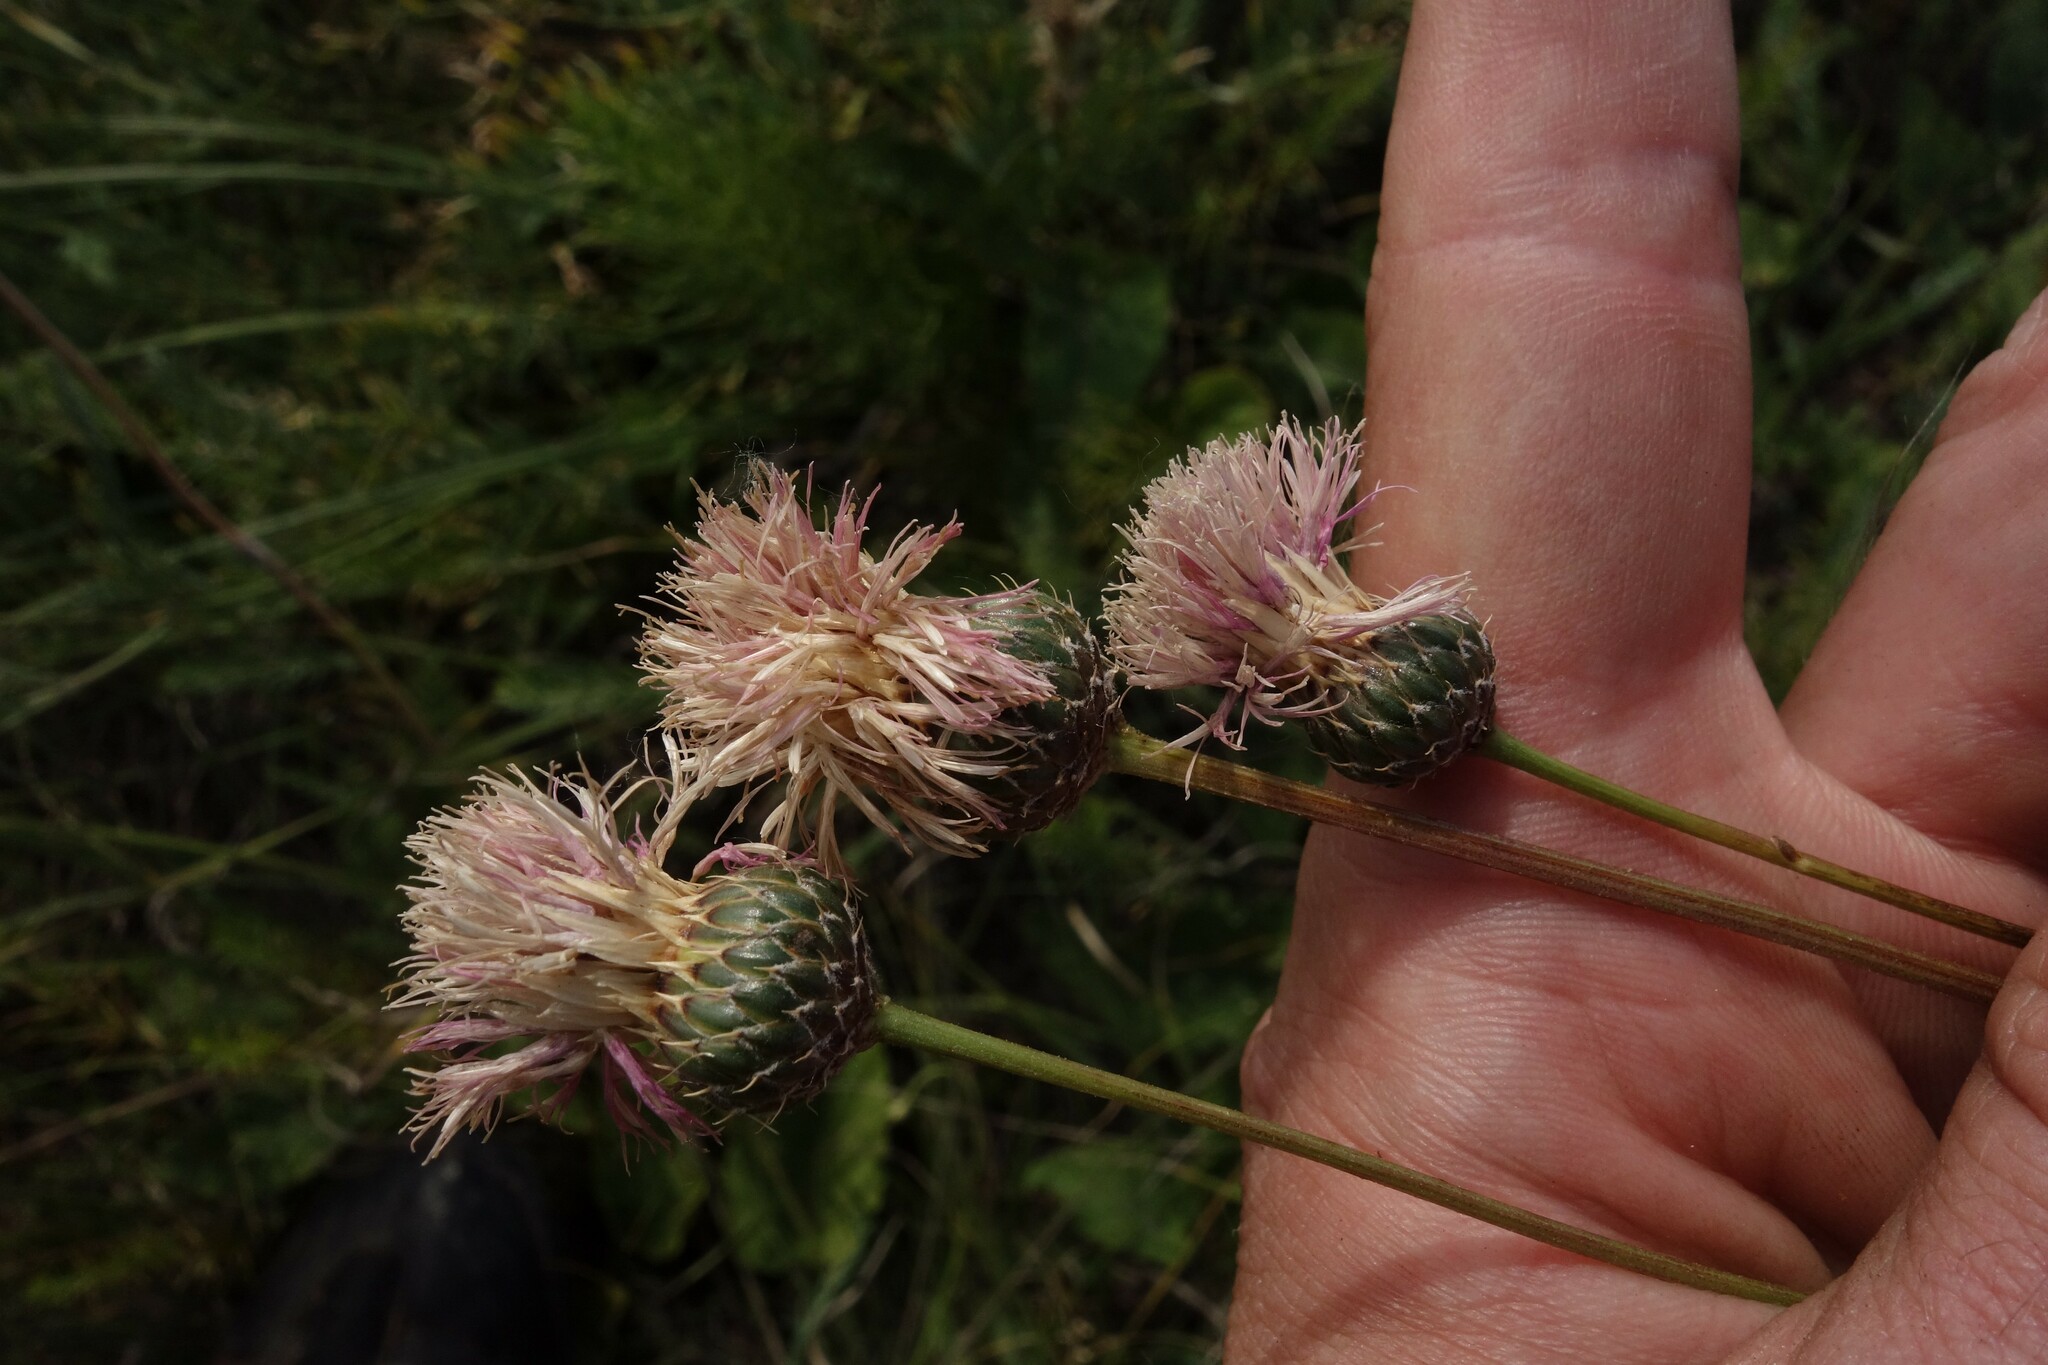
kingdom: Plantae
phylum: Tracheophyta
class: Magnoliopsida
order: Asterales
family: Asteraceae
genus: Klasea
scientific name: Klasea radiata
